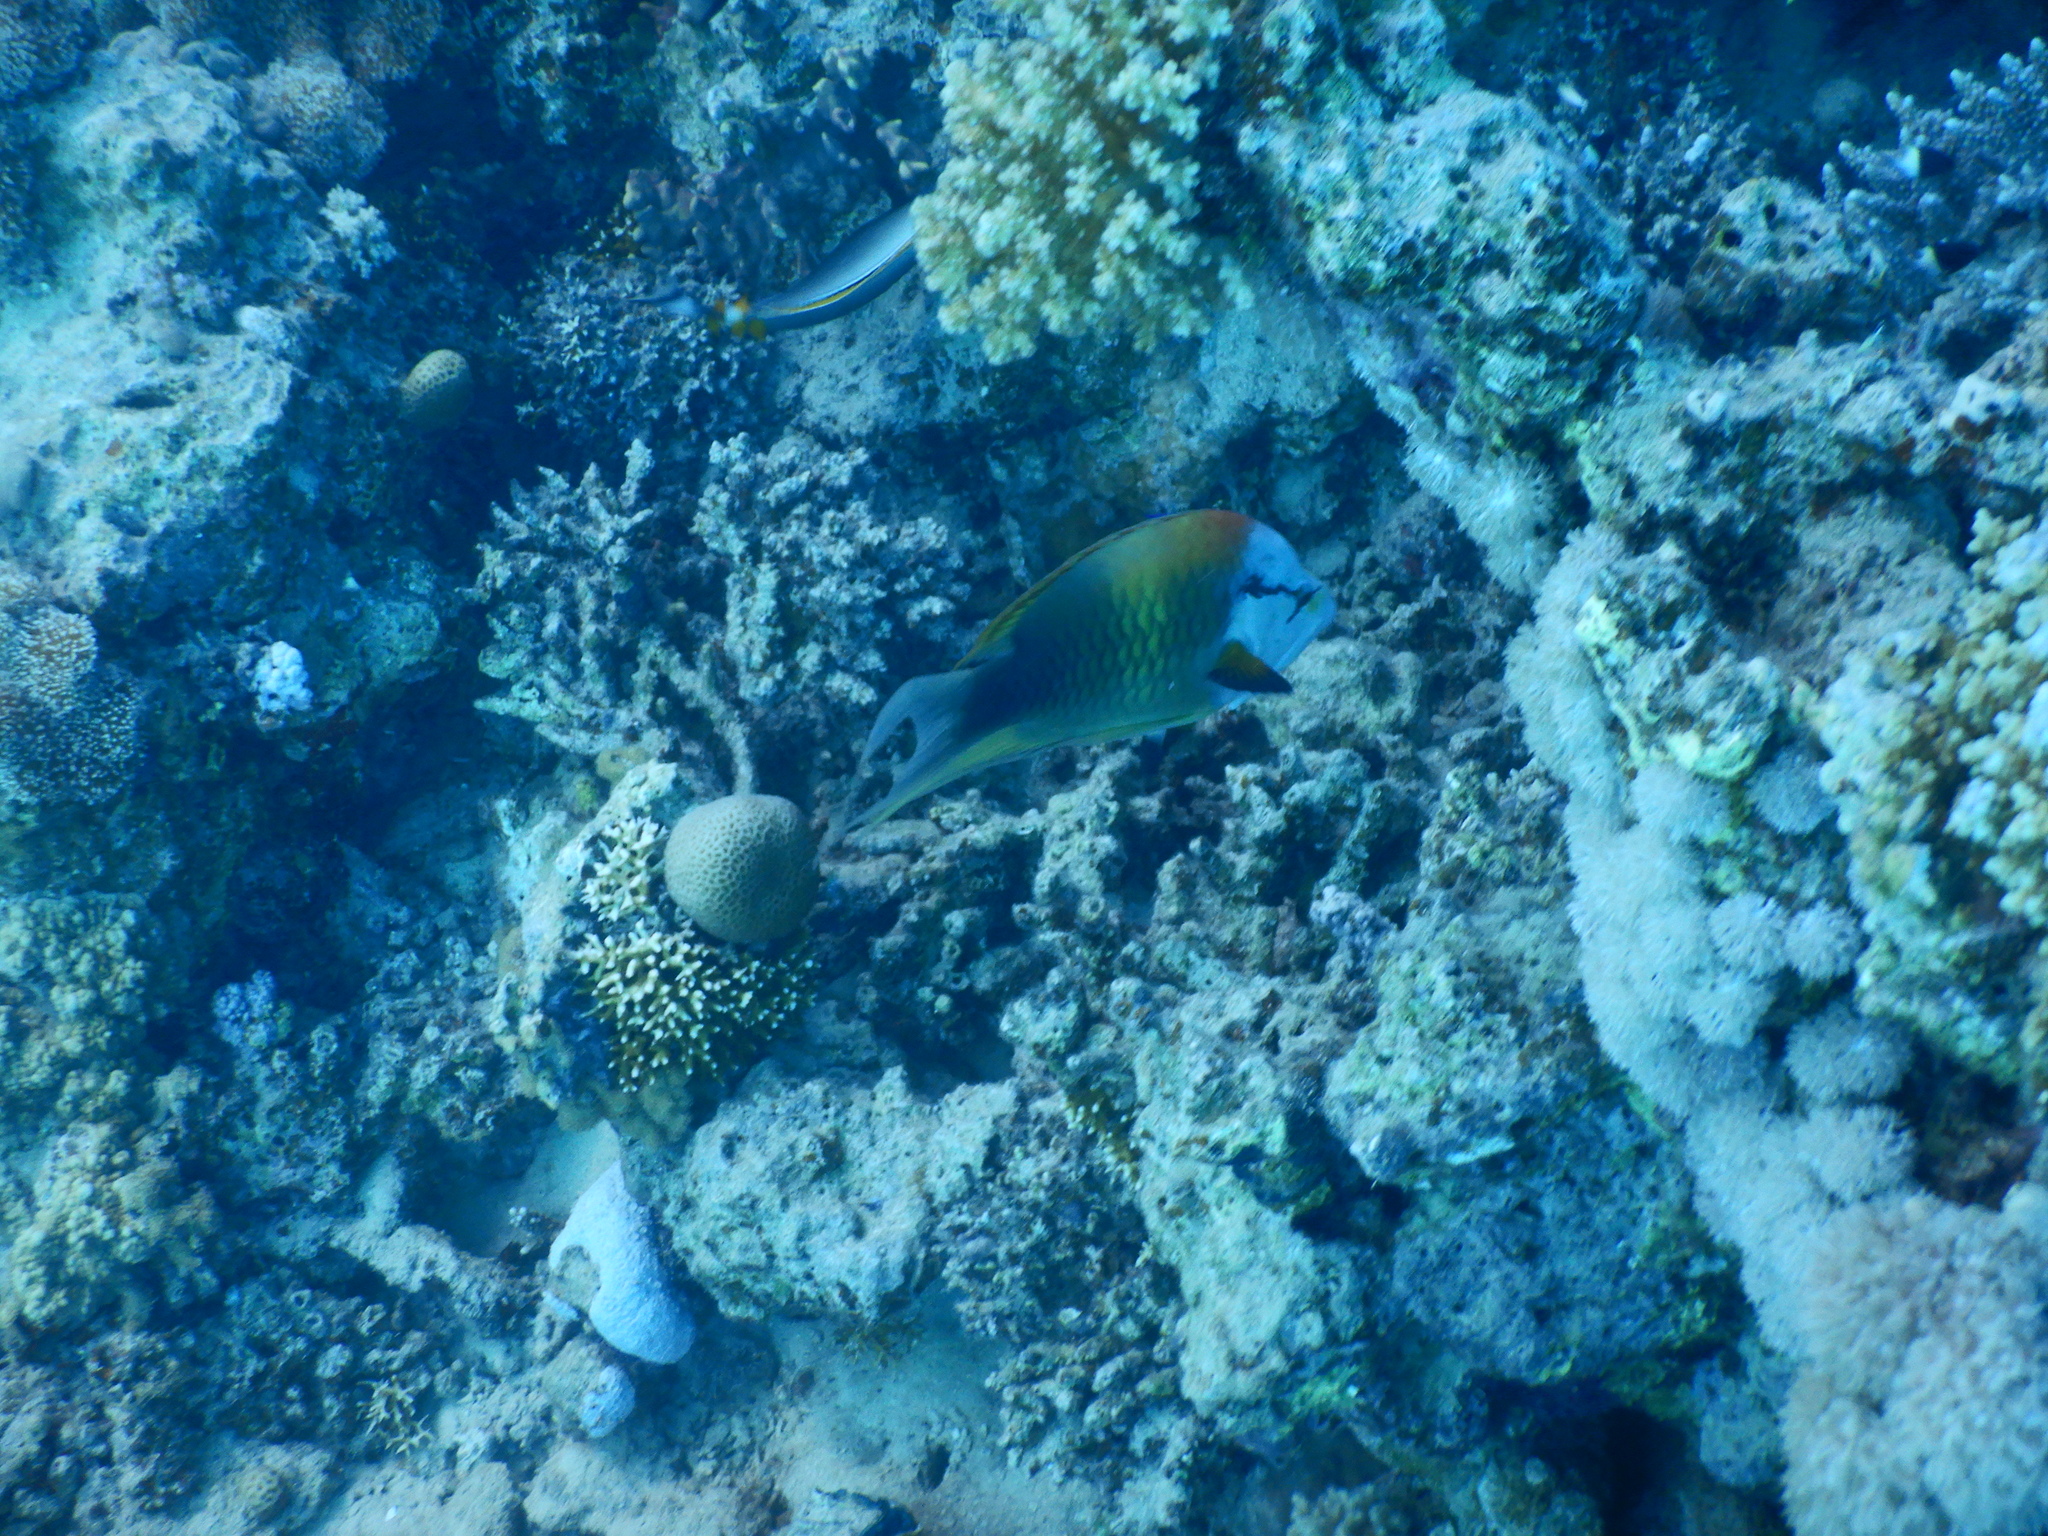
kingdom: Animalia
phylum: Chordata
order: Perciformes
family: Labridae
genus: Epibulus
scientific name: Epibulus insidiator
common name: Slingjaw wrasse
